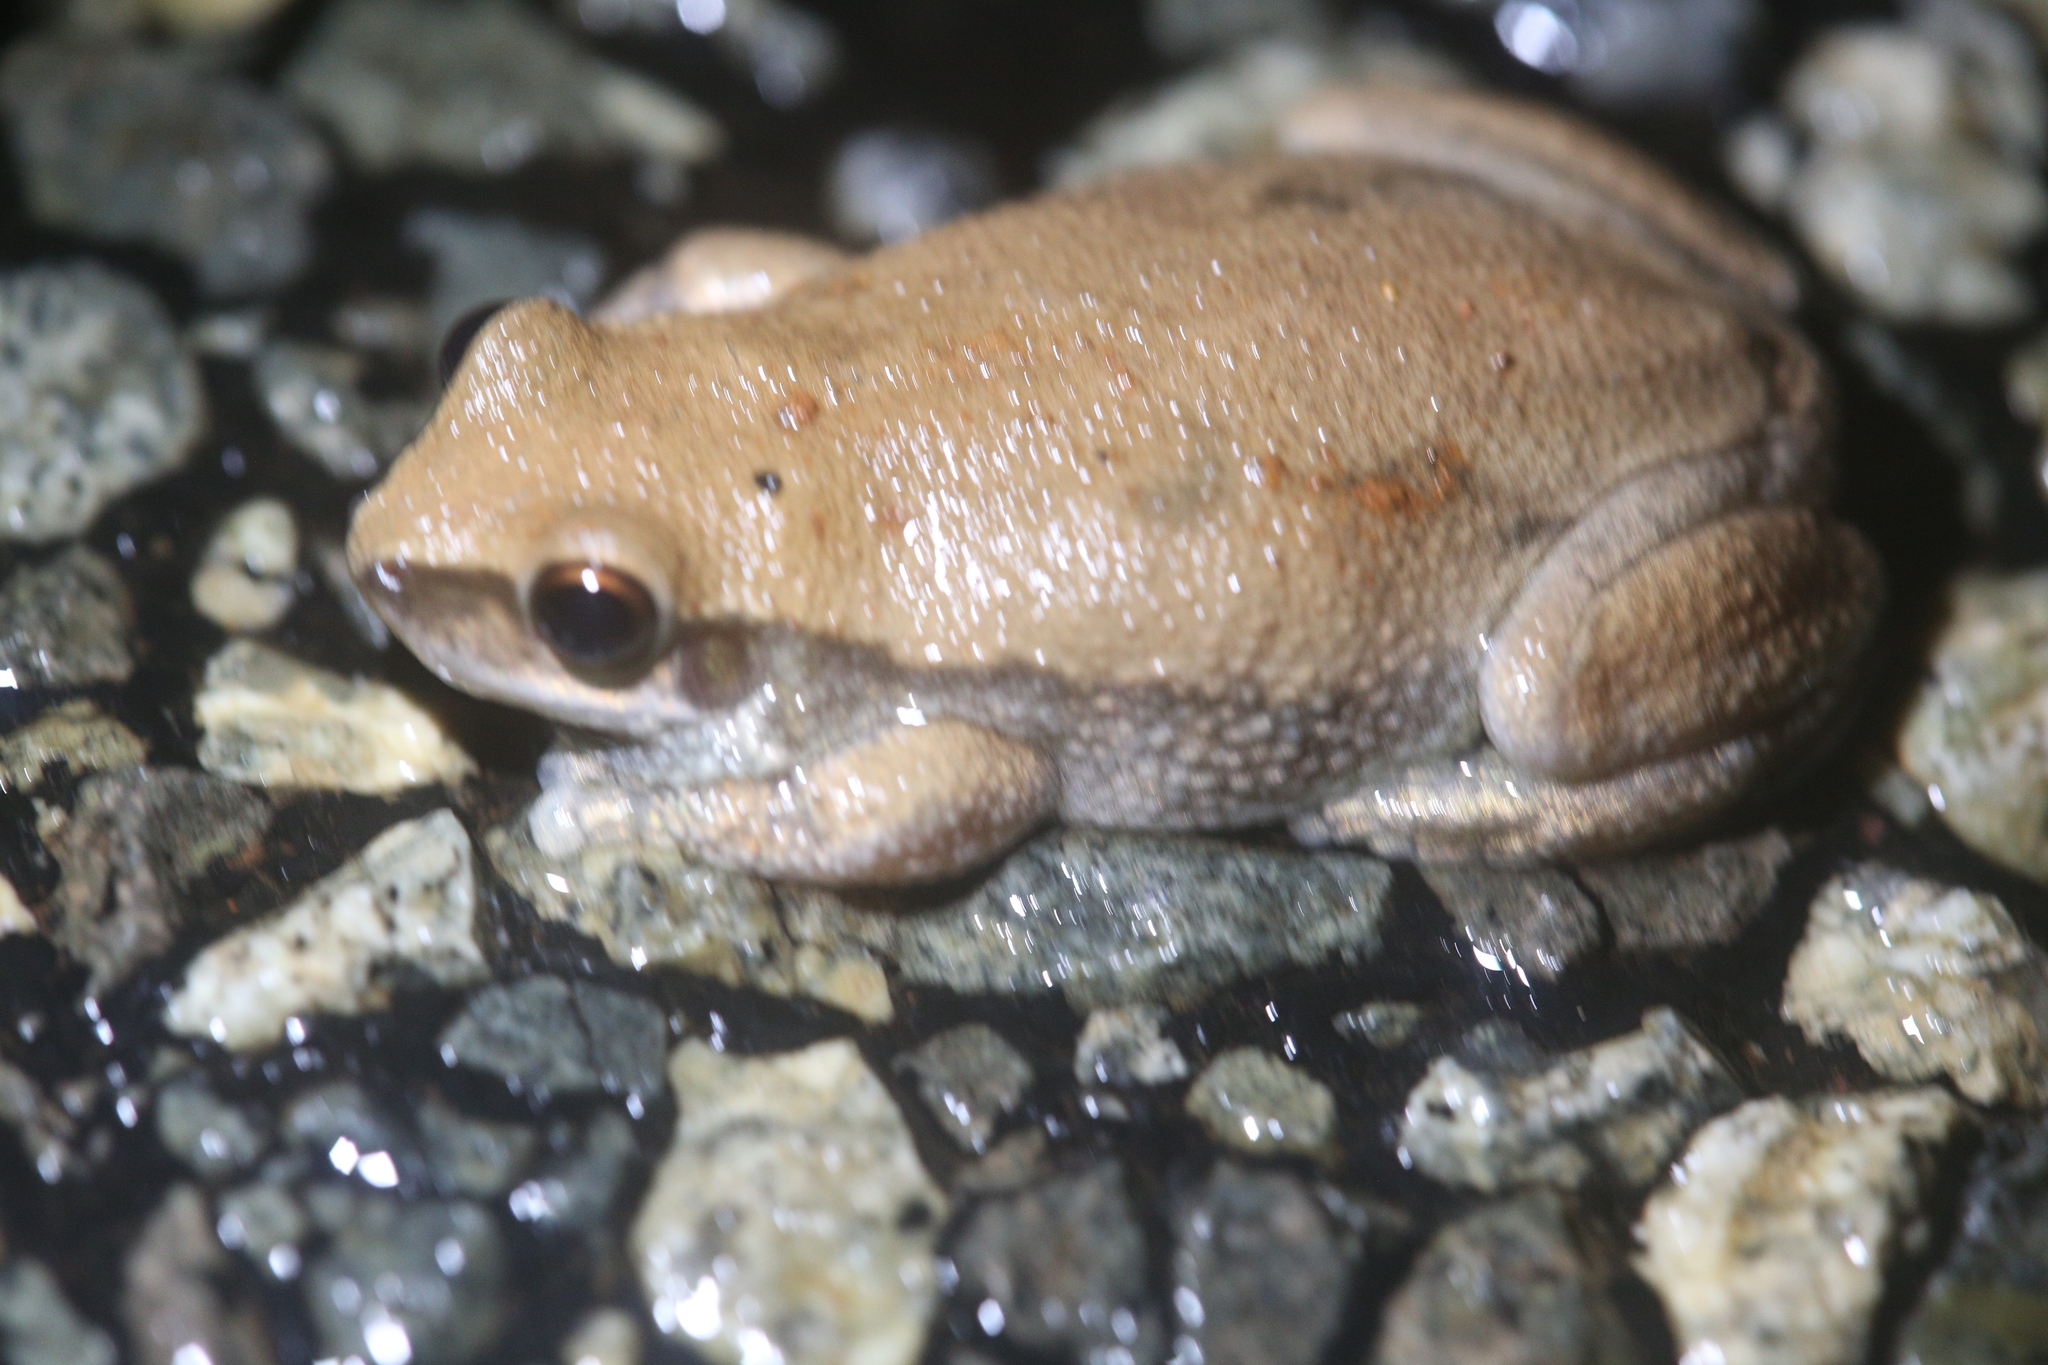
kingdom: Animalia
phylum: Chordata
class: Amphibia
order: Anura
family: Pelodryadidae
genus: Litoria
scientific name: Litoria rubella
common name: Desert tree frog
